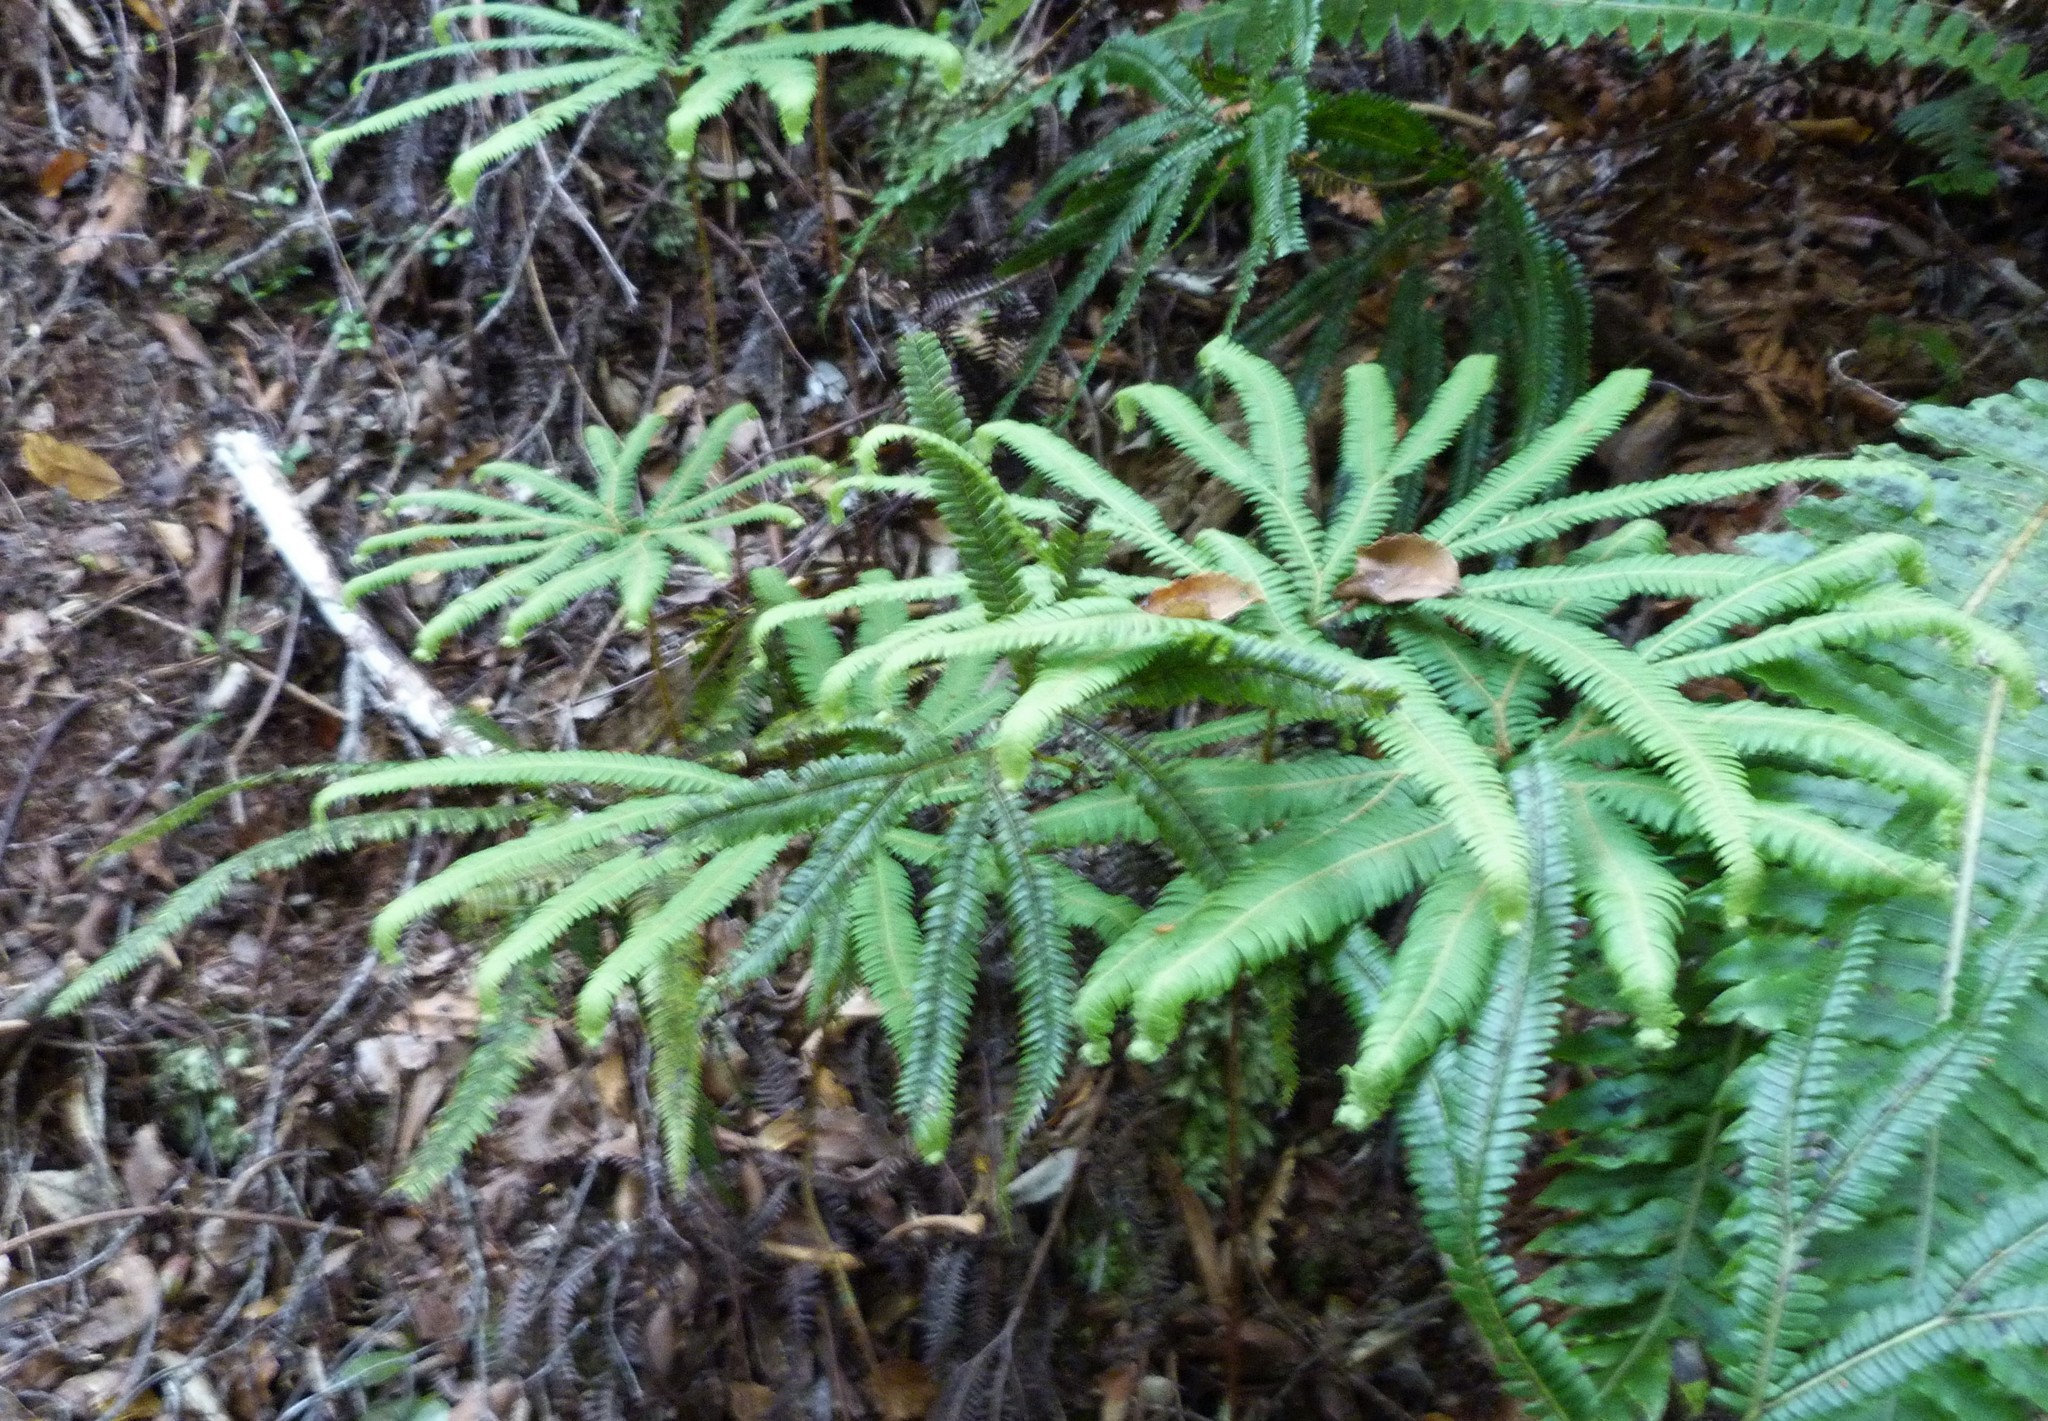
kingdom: Plantae
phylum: Tracheophyta
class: Polypodiopsida
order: Gleicheniales
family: Gleicheniaceae
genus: Sticherus
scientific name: Sticherus cunninghamii
